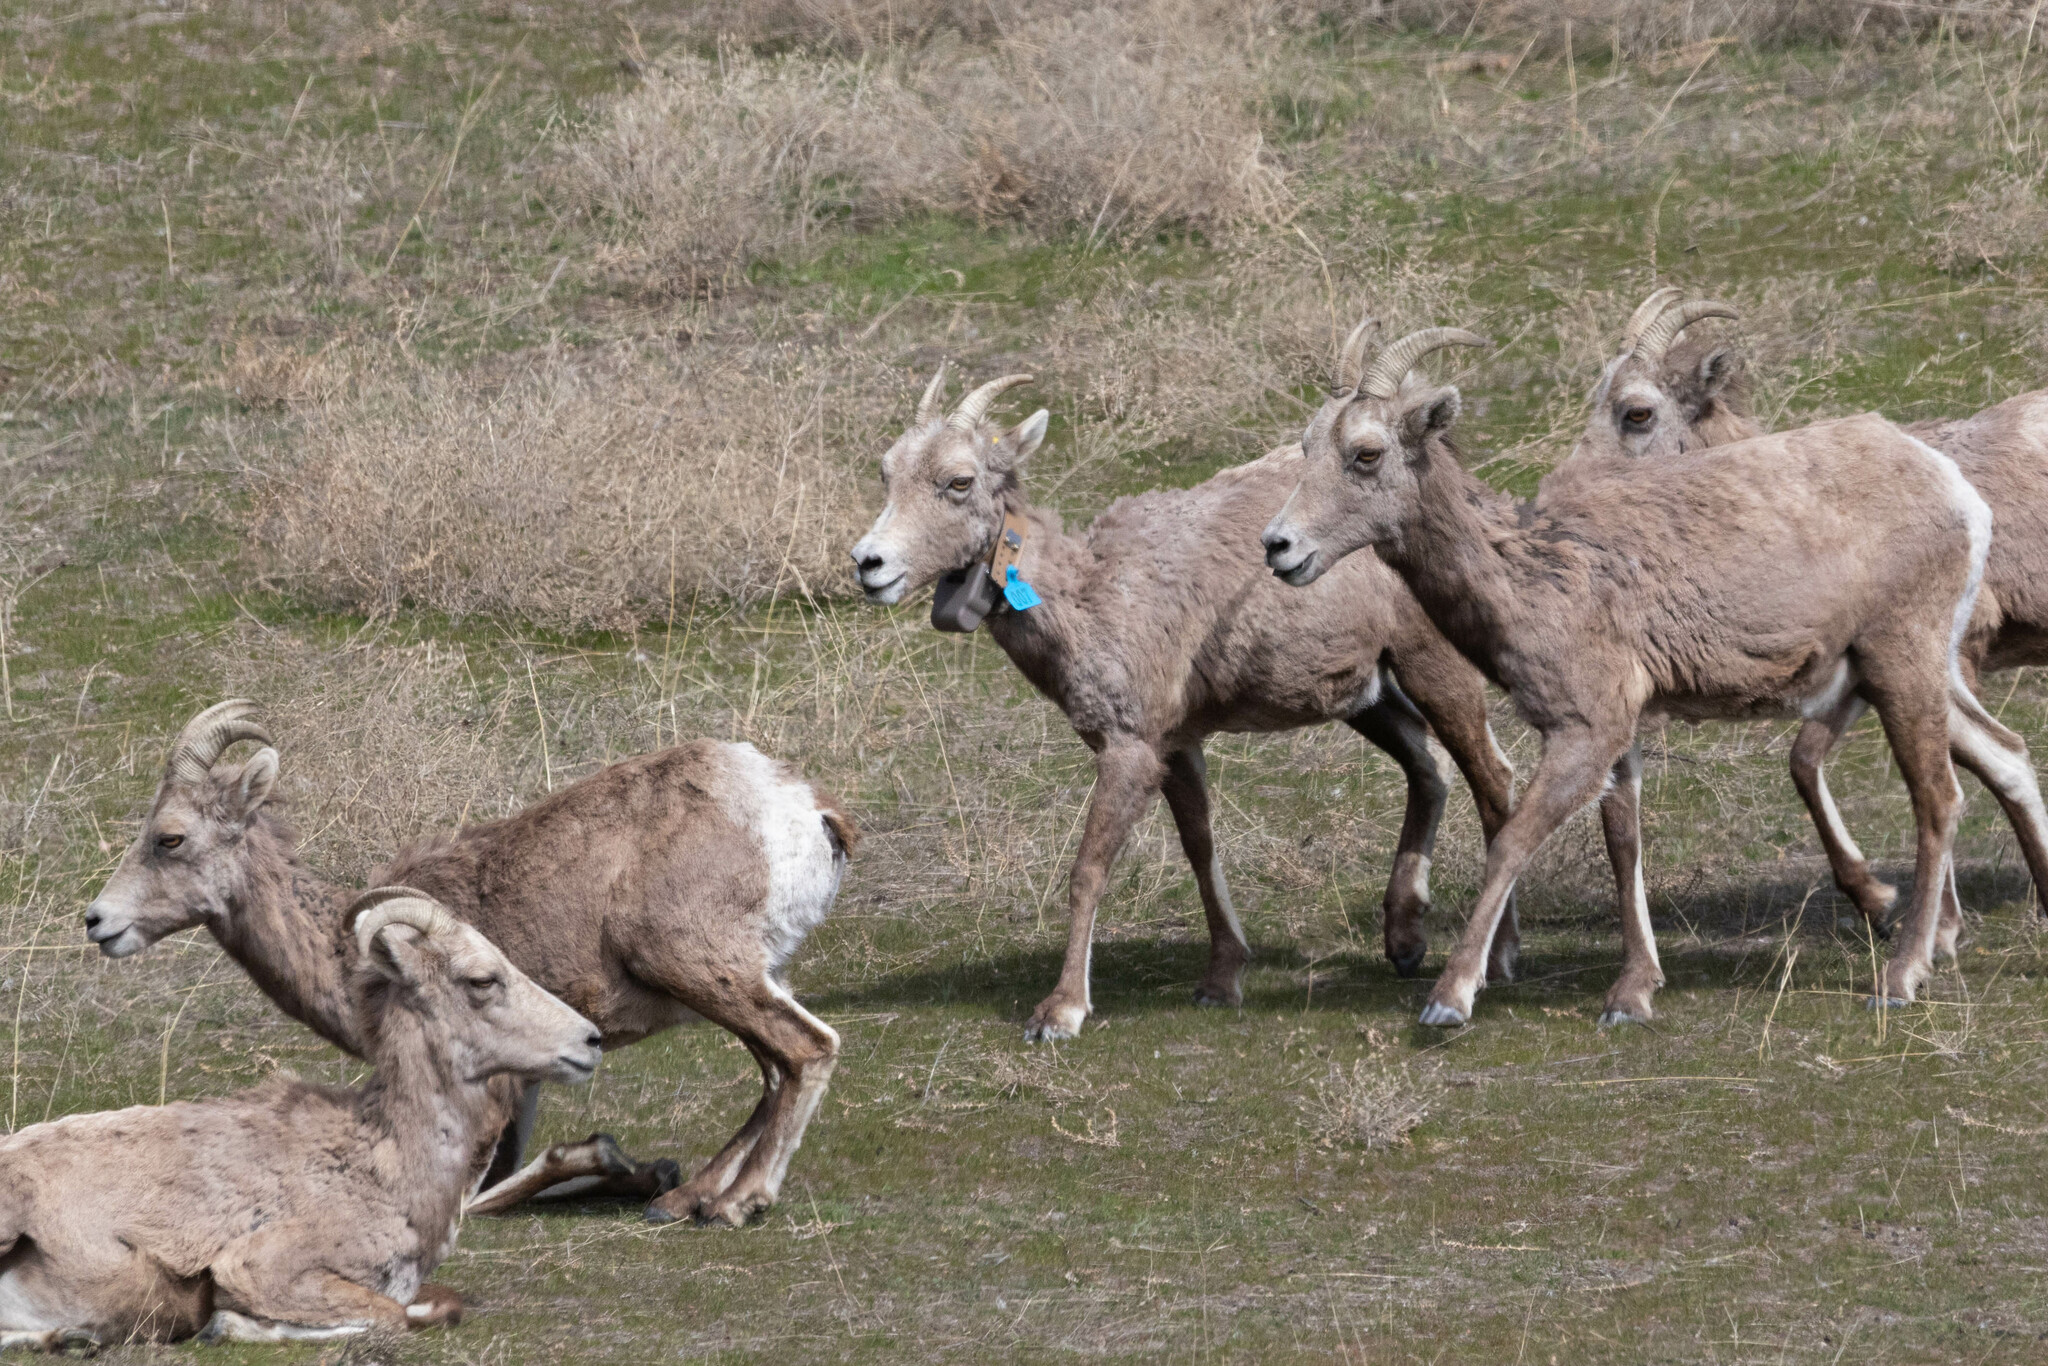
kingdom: Animalia
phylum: Chordata
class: Mammalia
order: Artiodactyla
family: Bovidae
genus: Ovis
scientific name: Ovis canadensis
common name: Bighorn sheep
